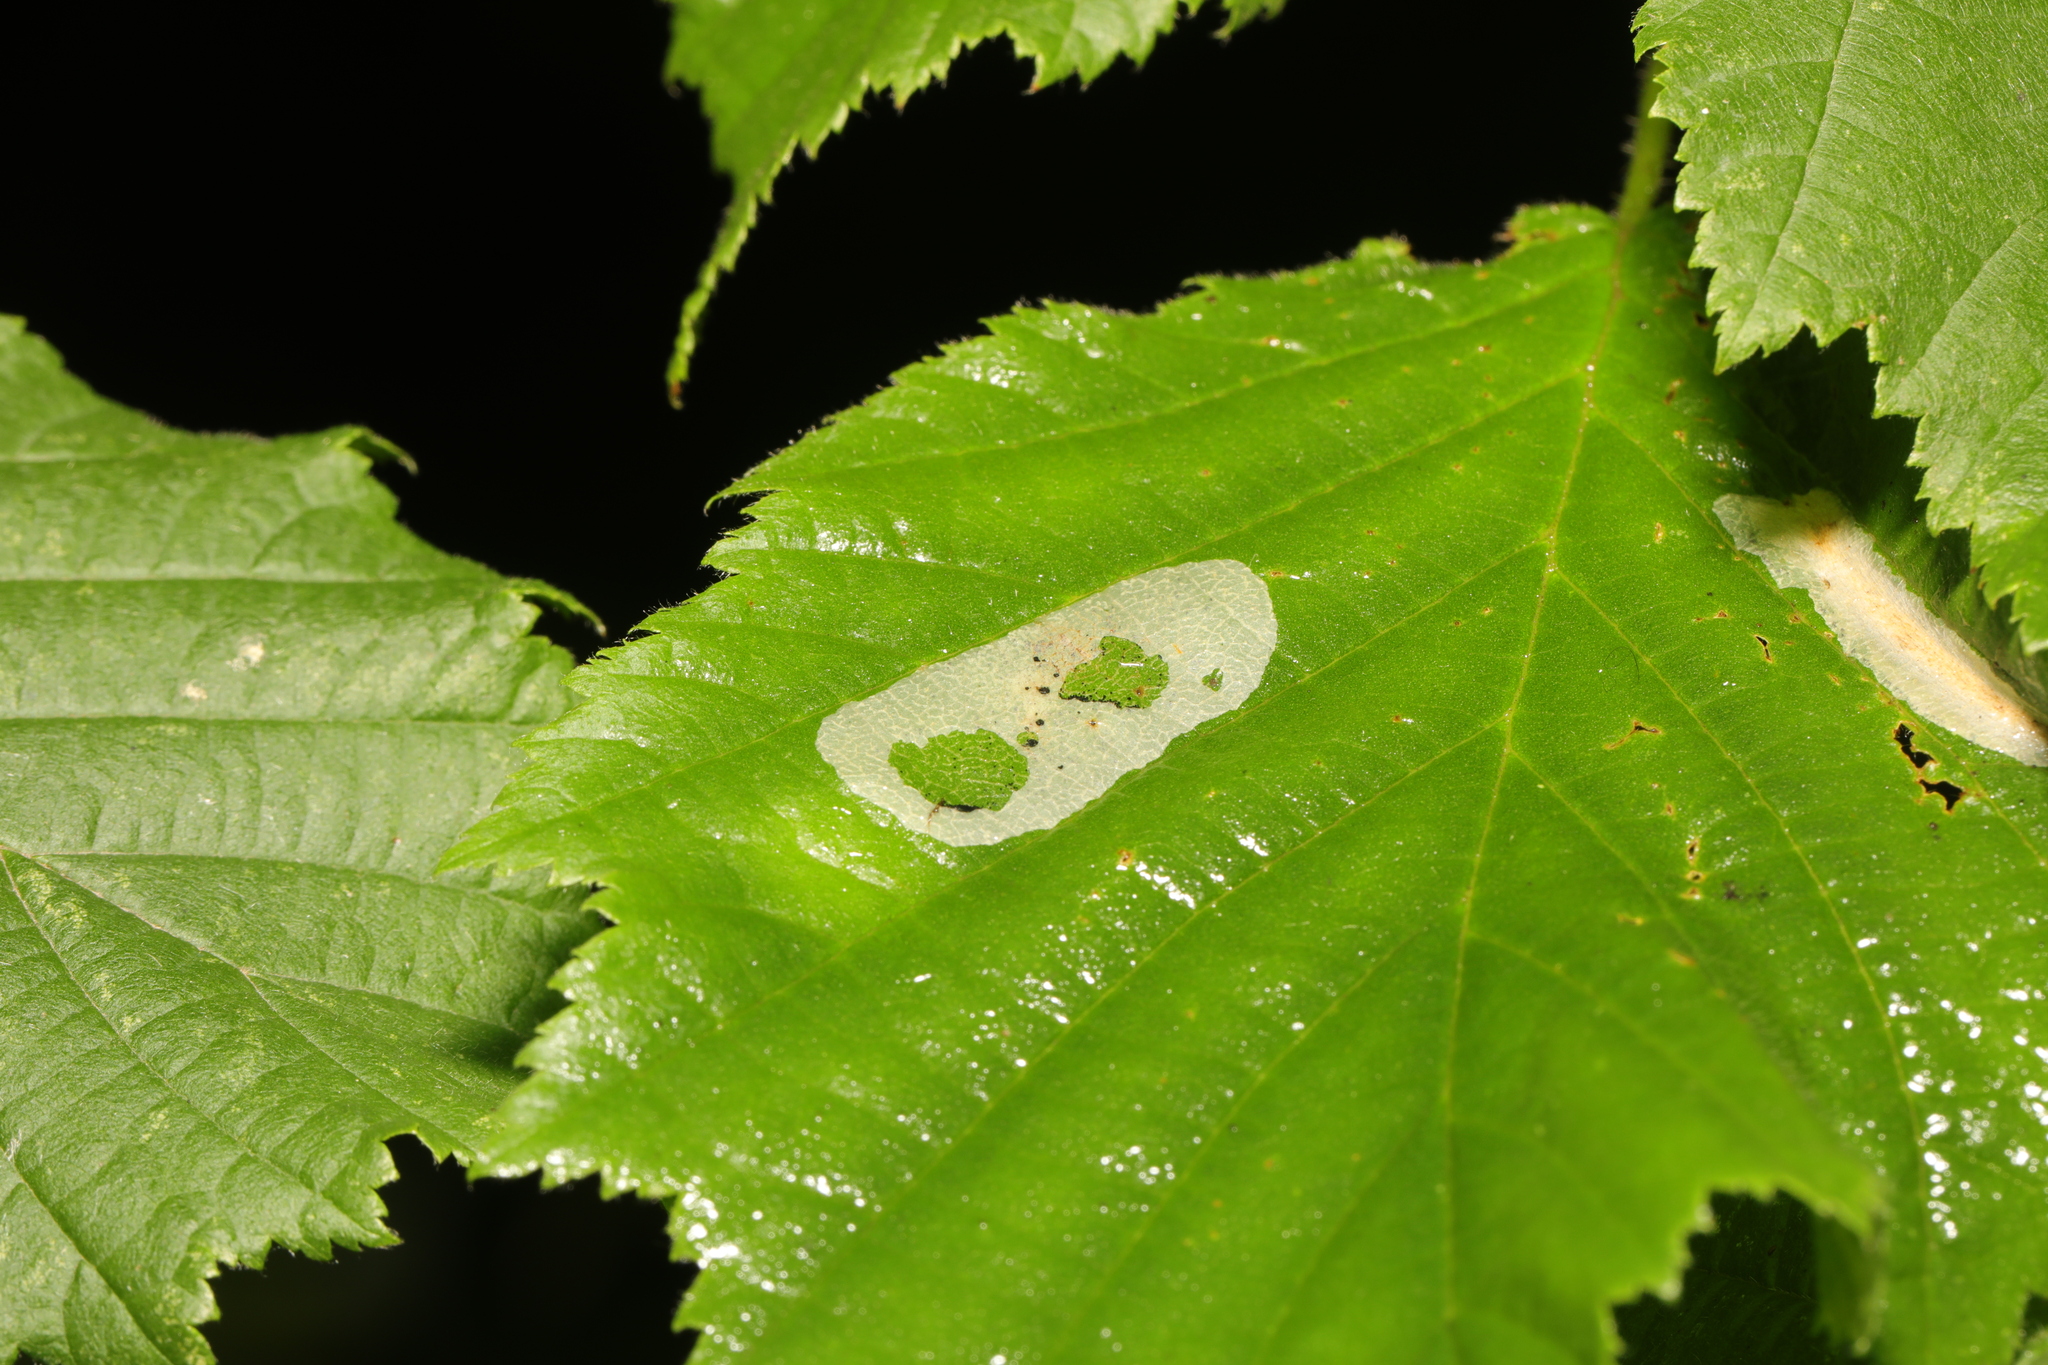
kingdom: Animalia
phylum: Arthropoda
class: Insecta
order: Lepidoptera
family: Gracillariidae
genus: Phyllonorycter
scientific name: Phyllonorycter coryli
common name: Nut-leaf blister moth
